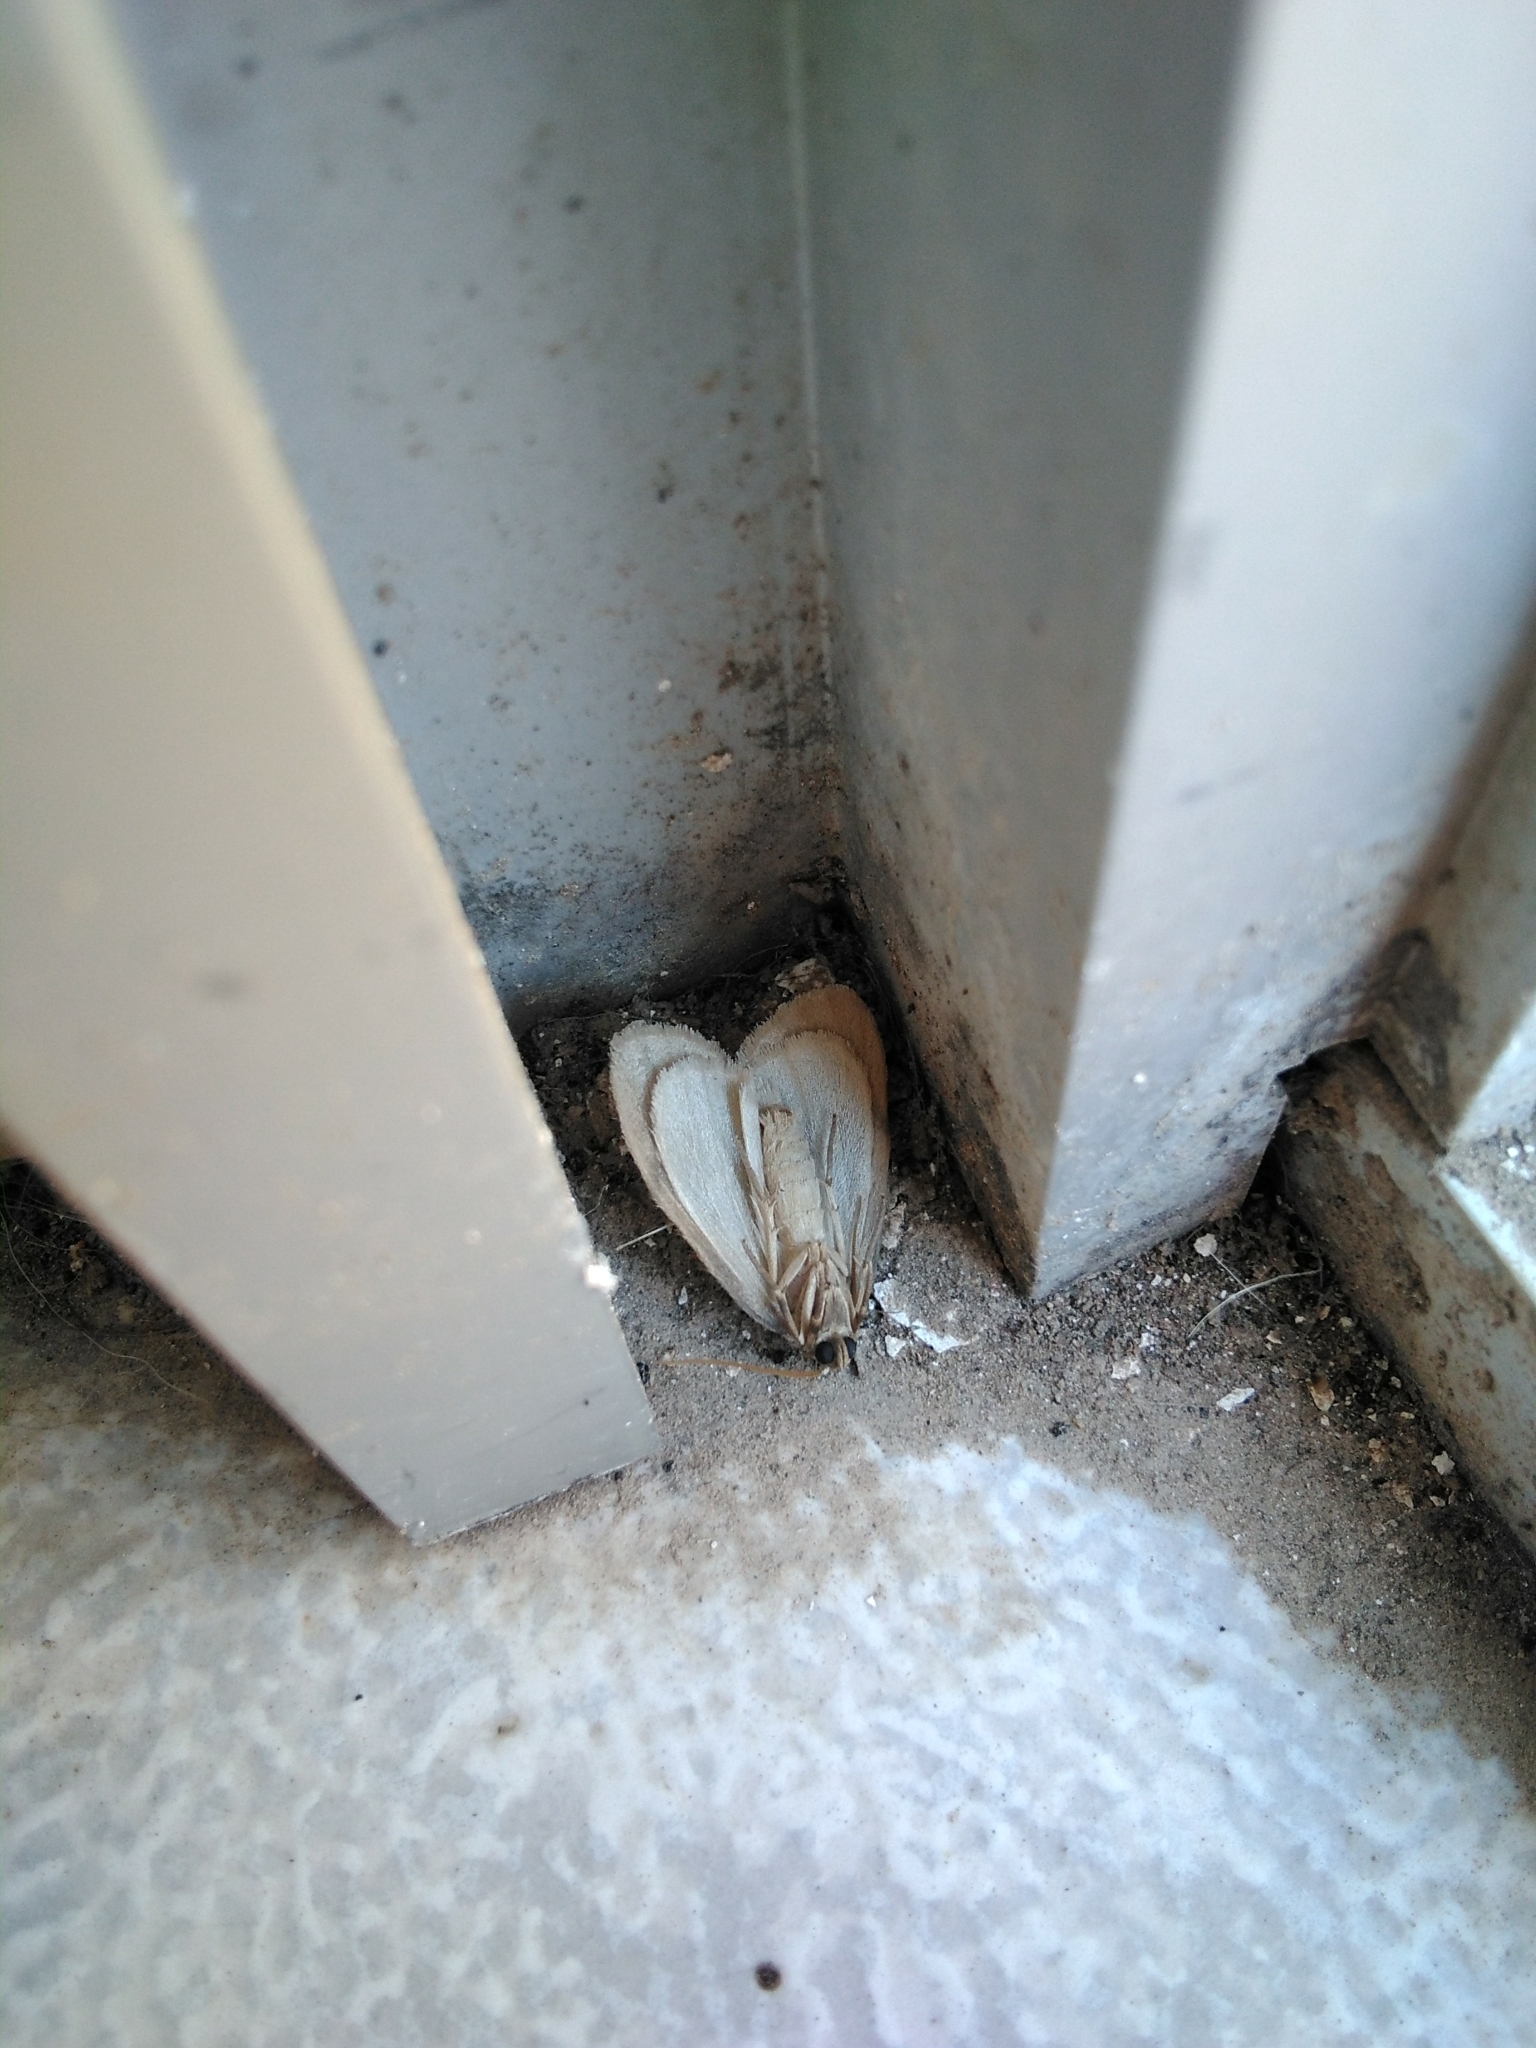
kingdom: Animalia
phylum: Arthropoda
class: Insecta
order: Lepidoptera
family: Erebidae
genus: Paidia
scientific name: Paidia rica
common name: Glaucous muslin
